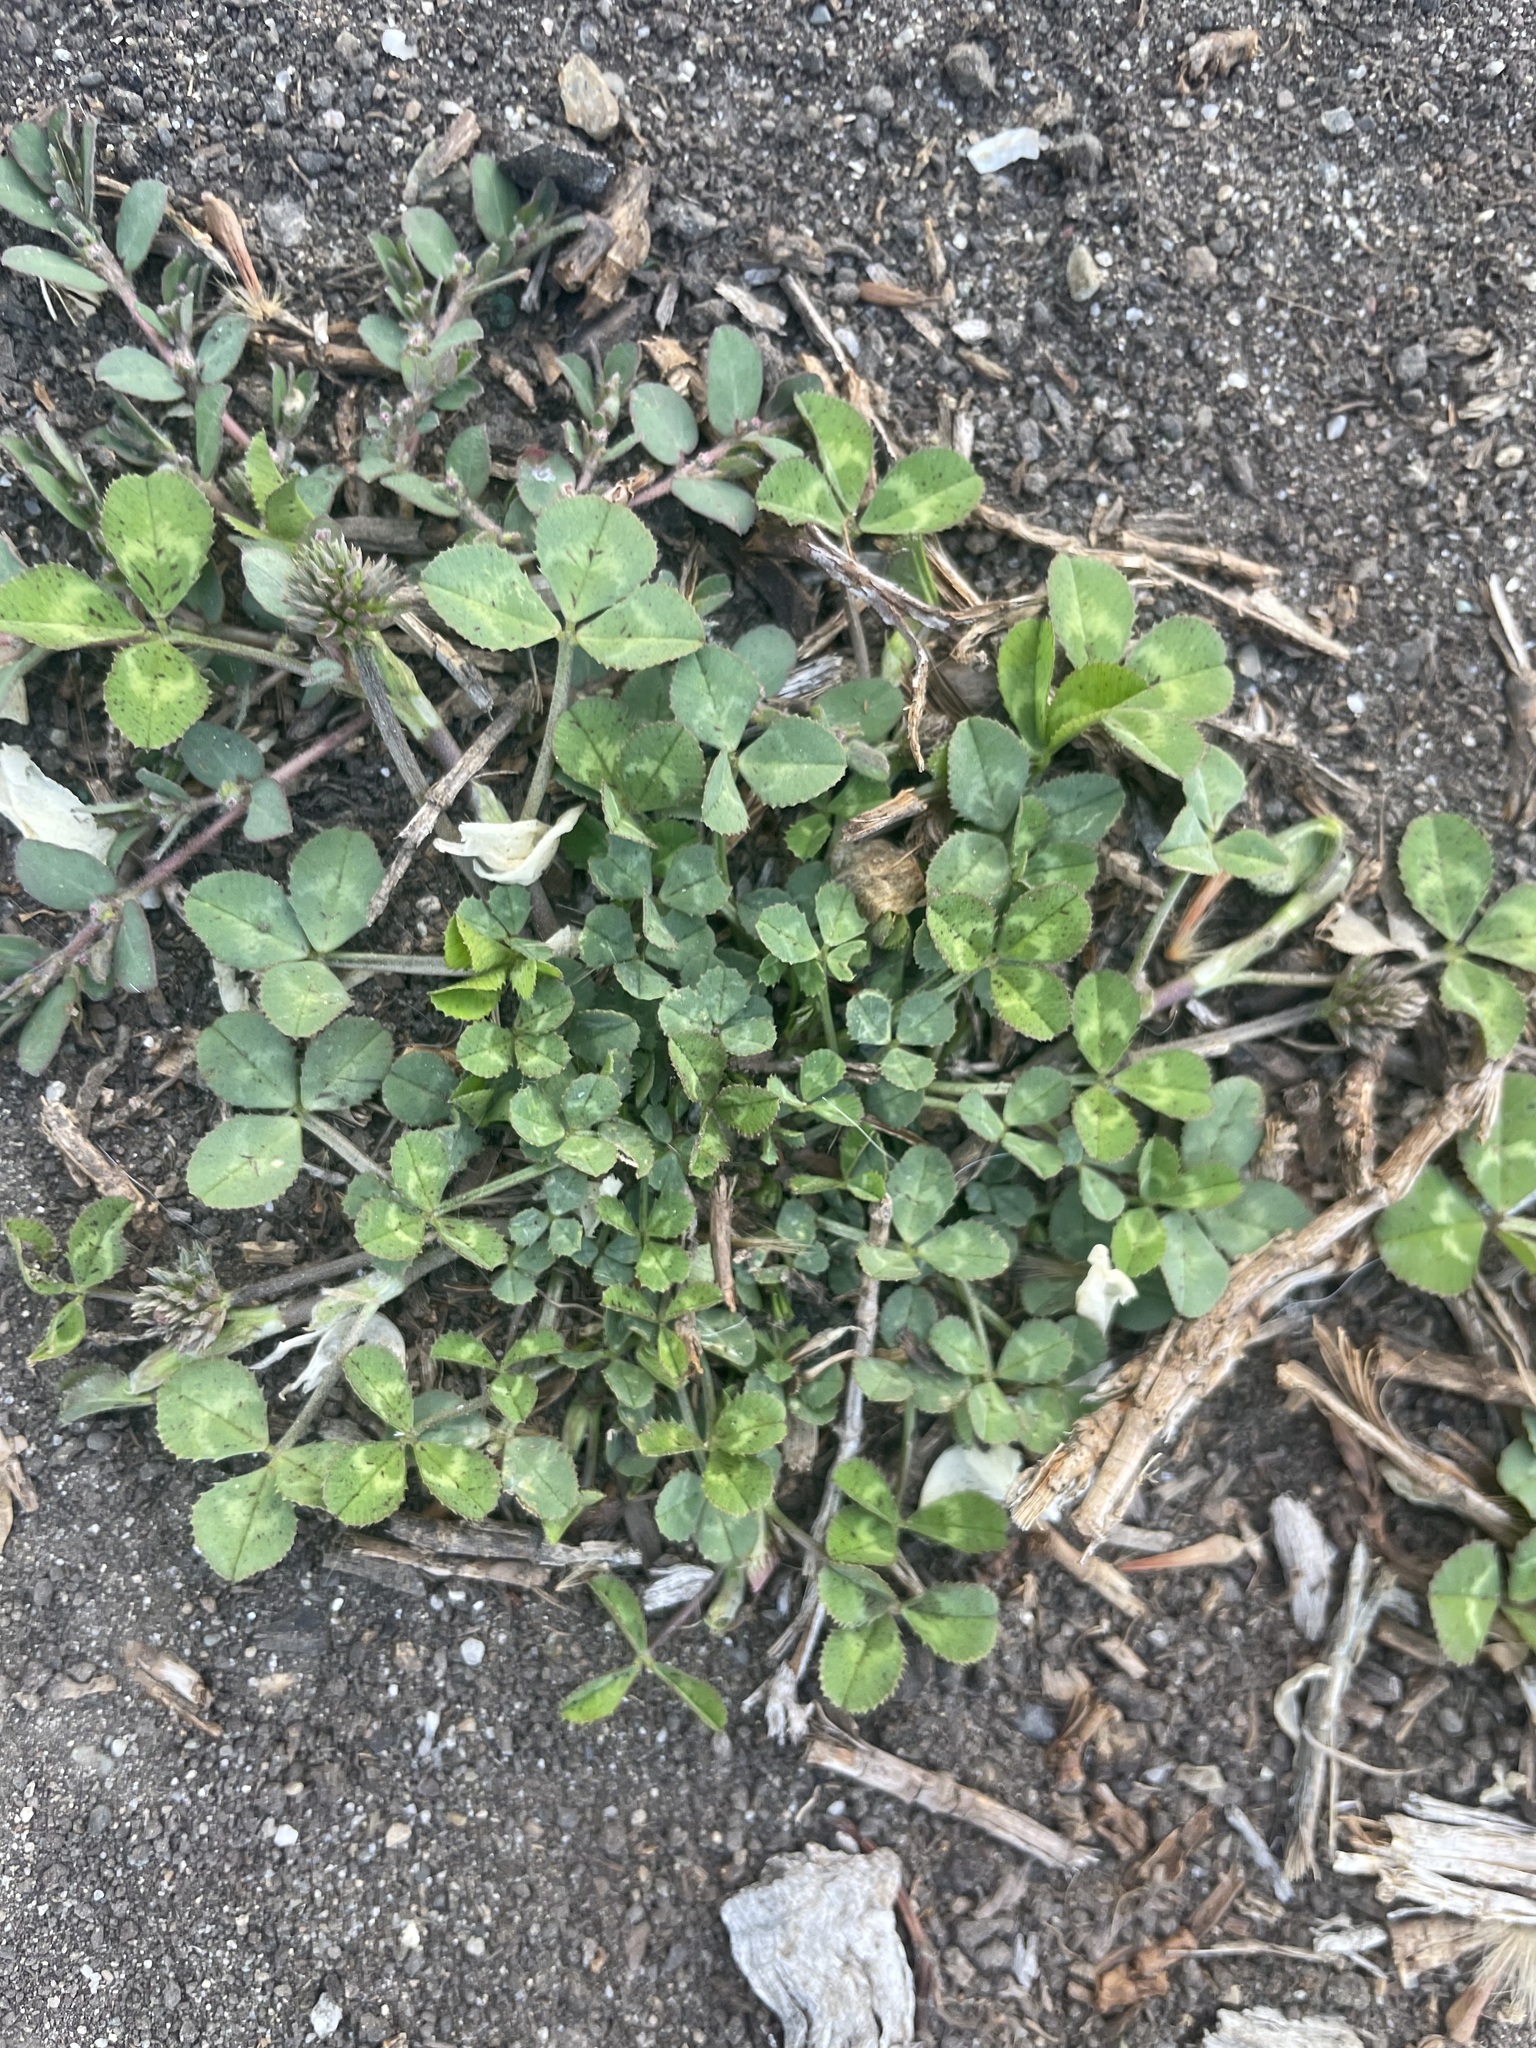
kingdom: Plantae
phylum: Tracheophyta
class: Magnoliopsida
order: Fabales
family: Fabaceae
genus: Trifolium
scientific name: Trifolium repens
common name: White clover
